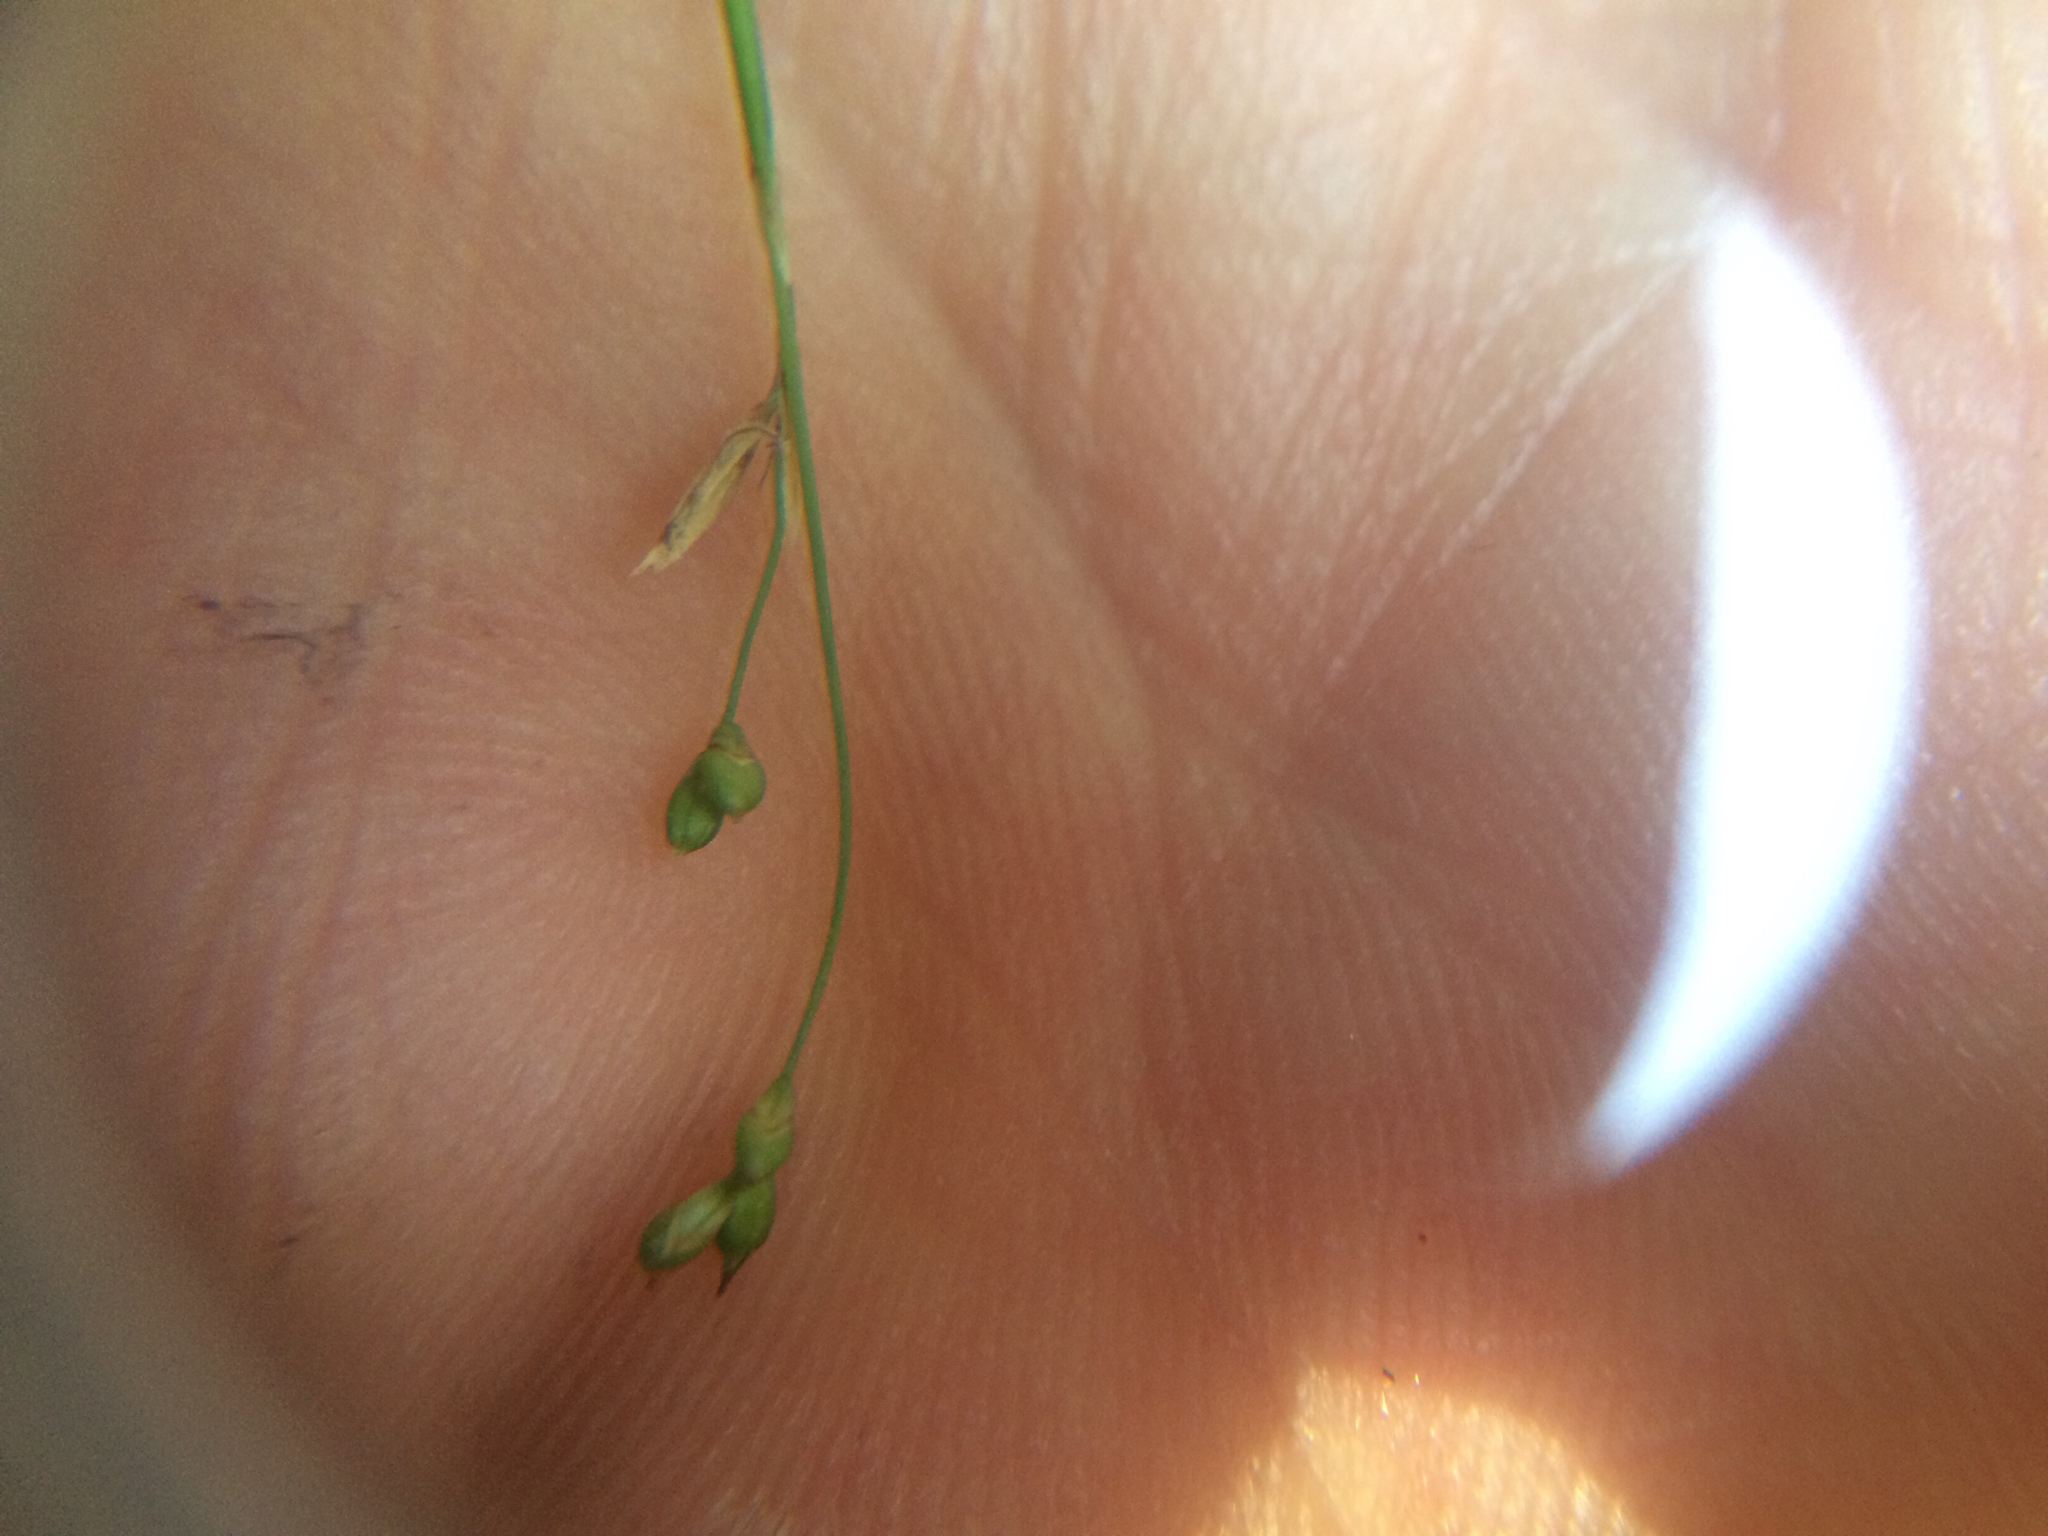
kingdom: Plantae
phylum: Tracheophyta
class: Liliopsida
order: Poales
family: Cyperaceae
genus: Carex
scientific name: Carex eburnea
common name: Bristle-leaved sedge
